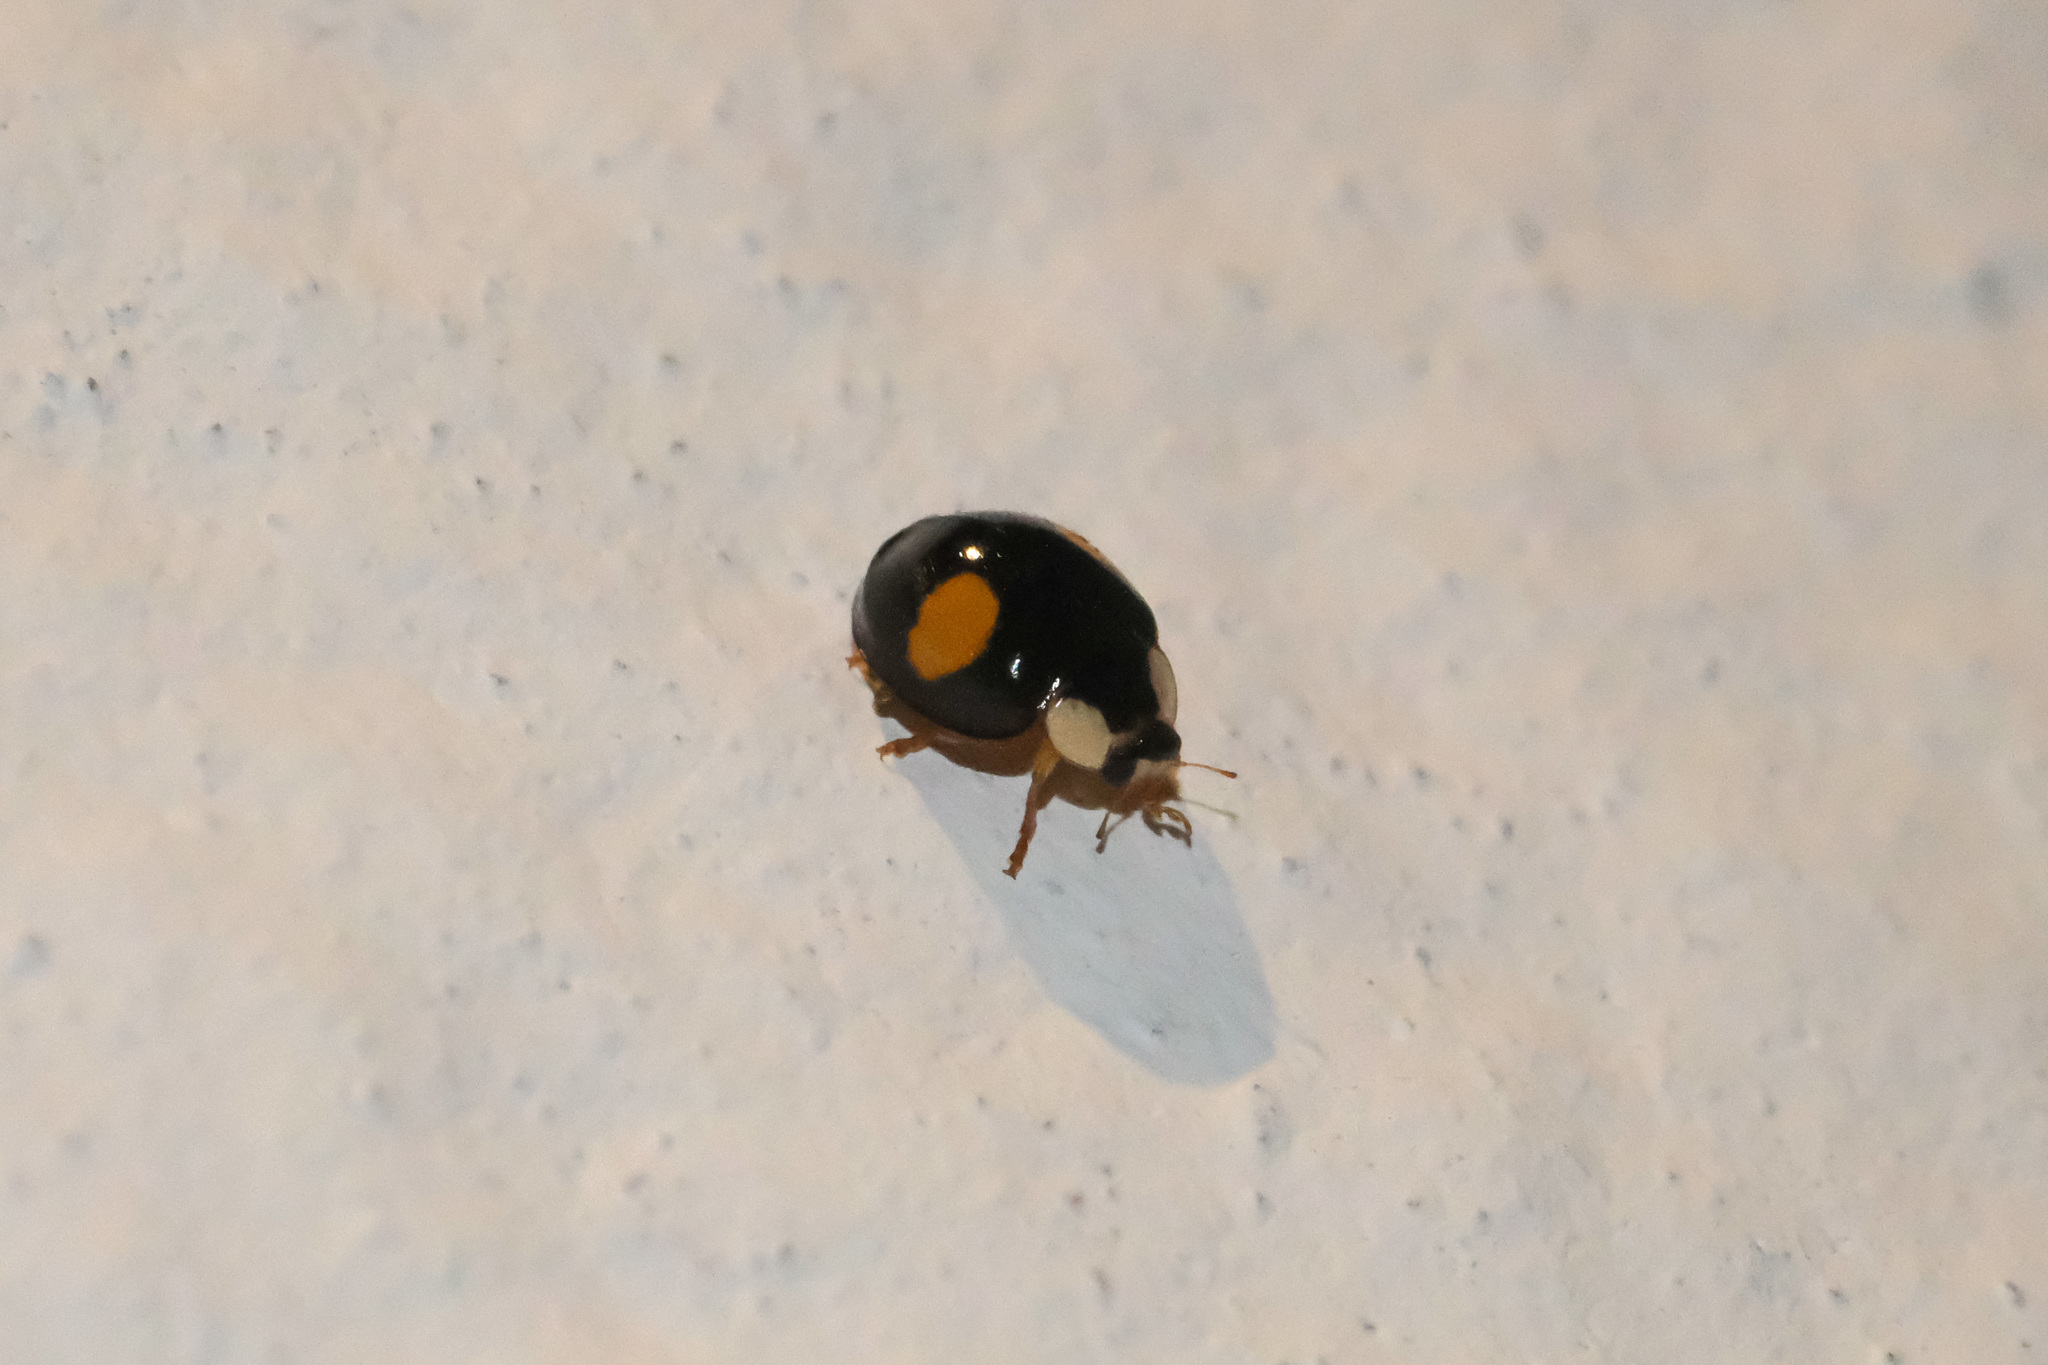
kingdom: Animalia
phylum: Arthropoda
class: Insecta
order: Coleoptera
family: Coccinellidae
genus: Harmonia
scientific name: Harmonia axyridis
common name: Harlequin ladybird
